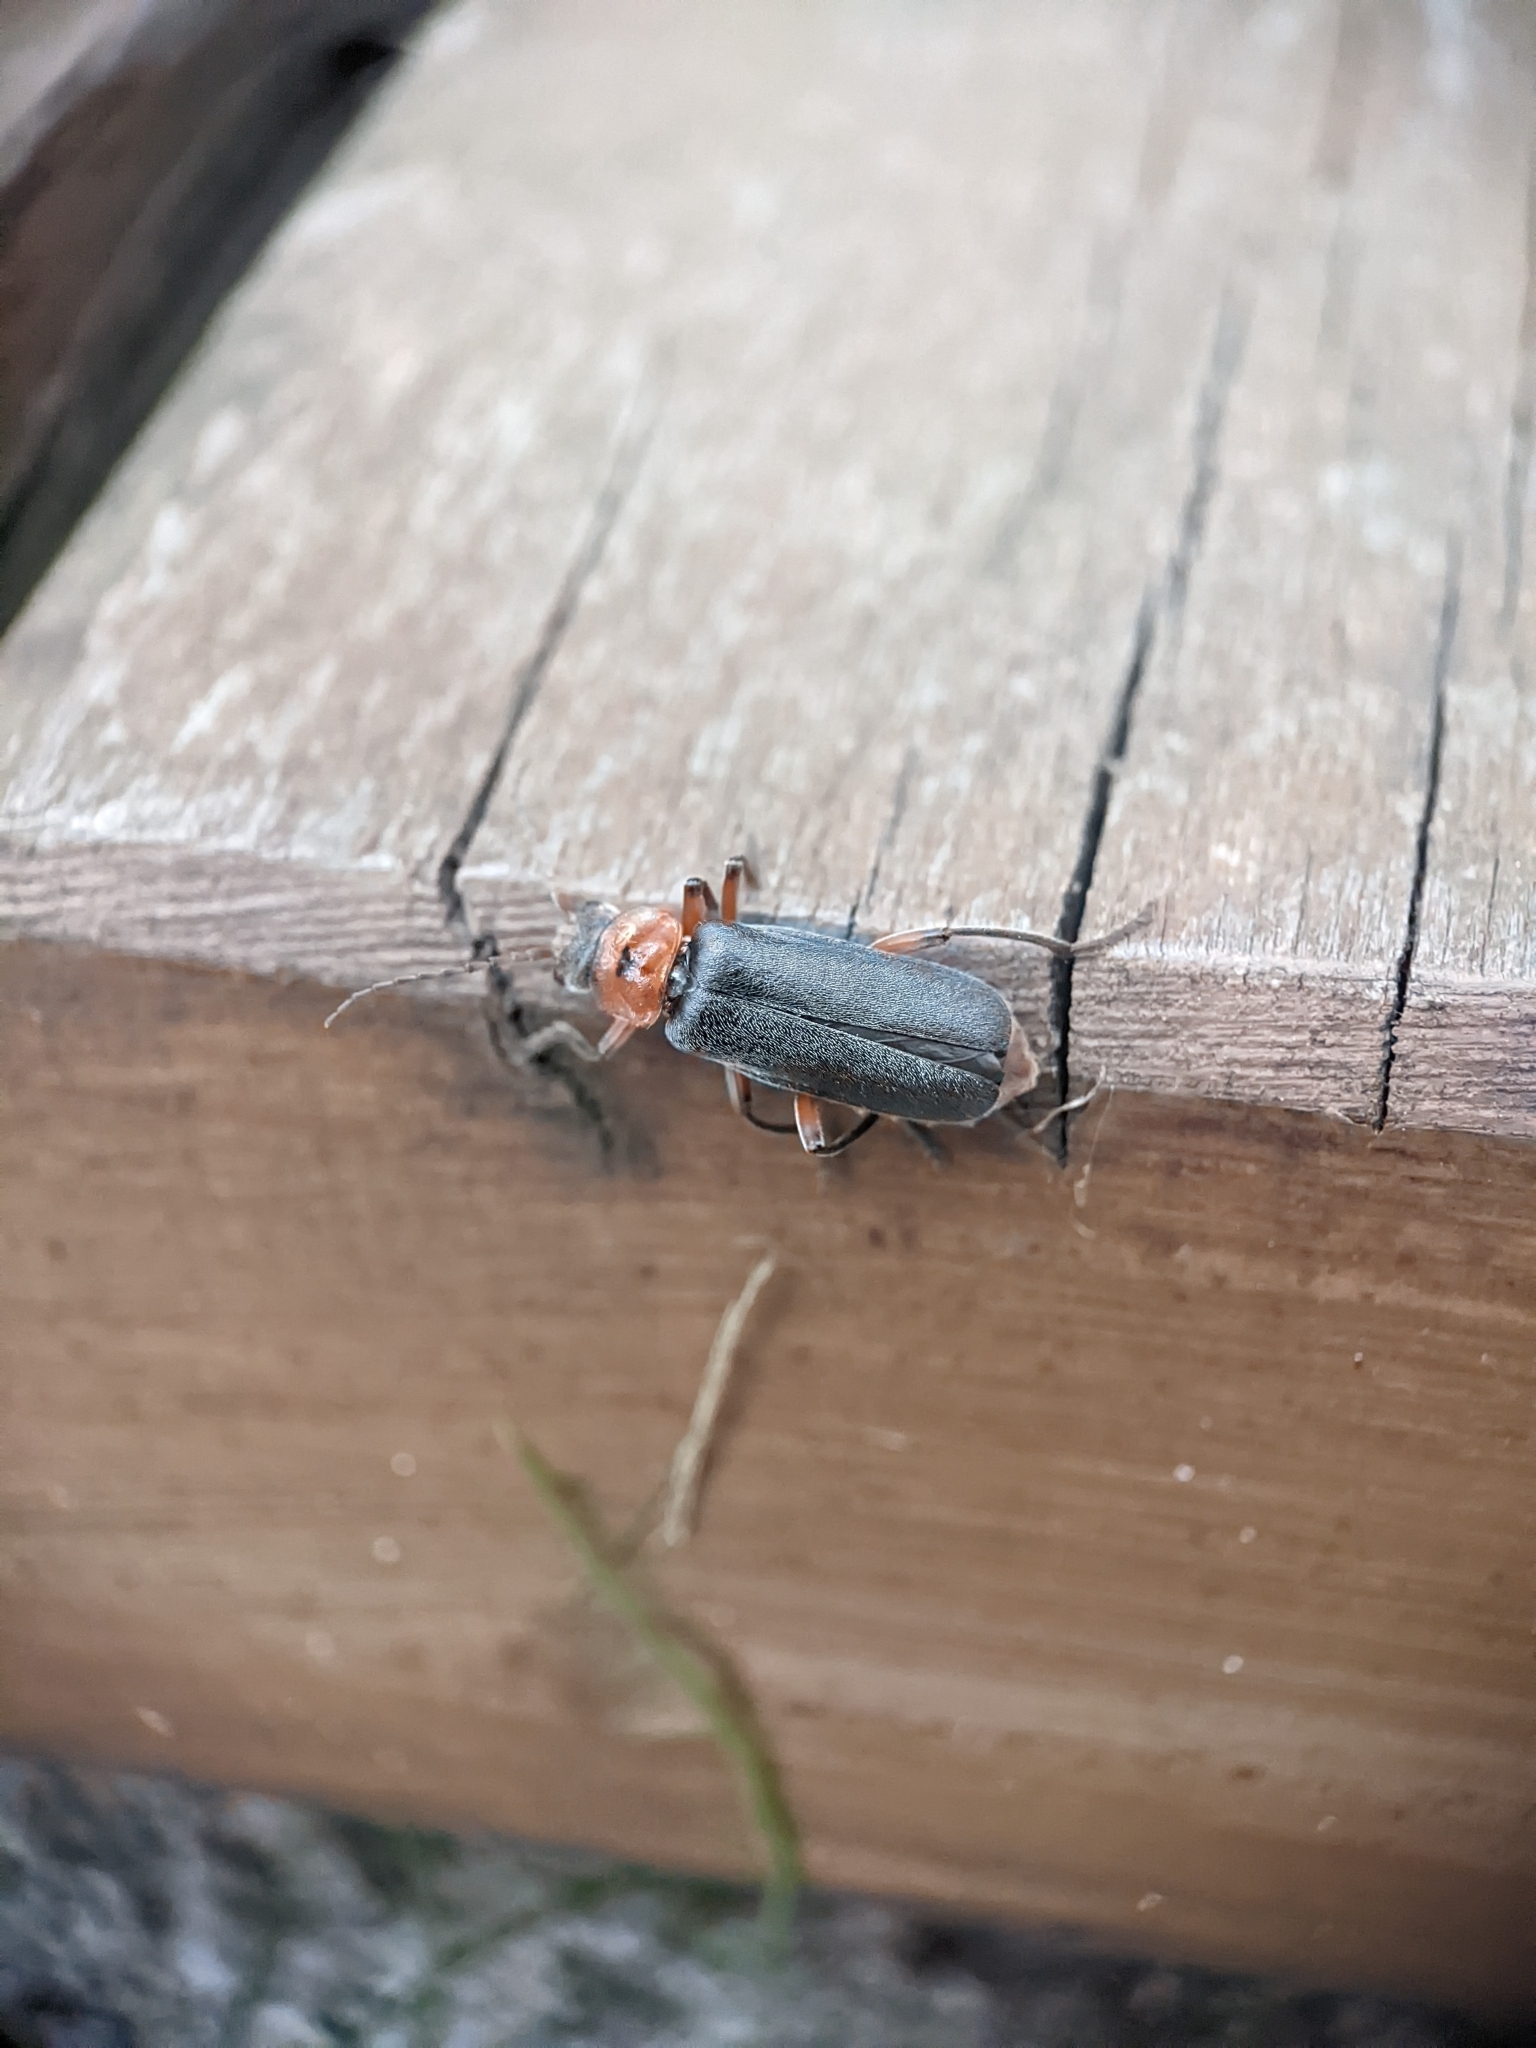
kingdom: Animalia
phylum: Arthropoda
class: Insecta
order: Coleoptera
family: Cantharidae
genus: Cantharis
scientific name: Cantharis rustica
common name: Soldier beetle
